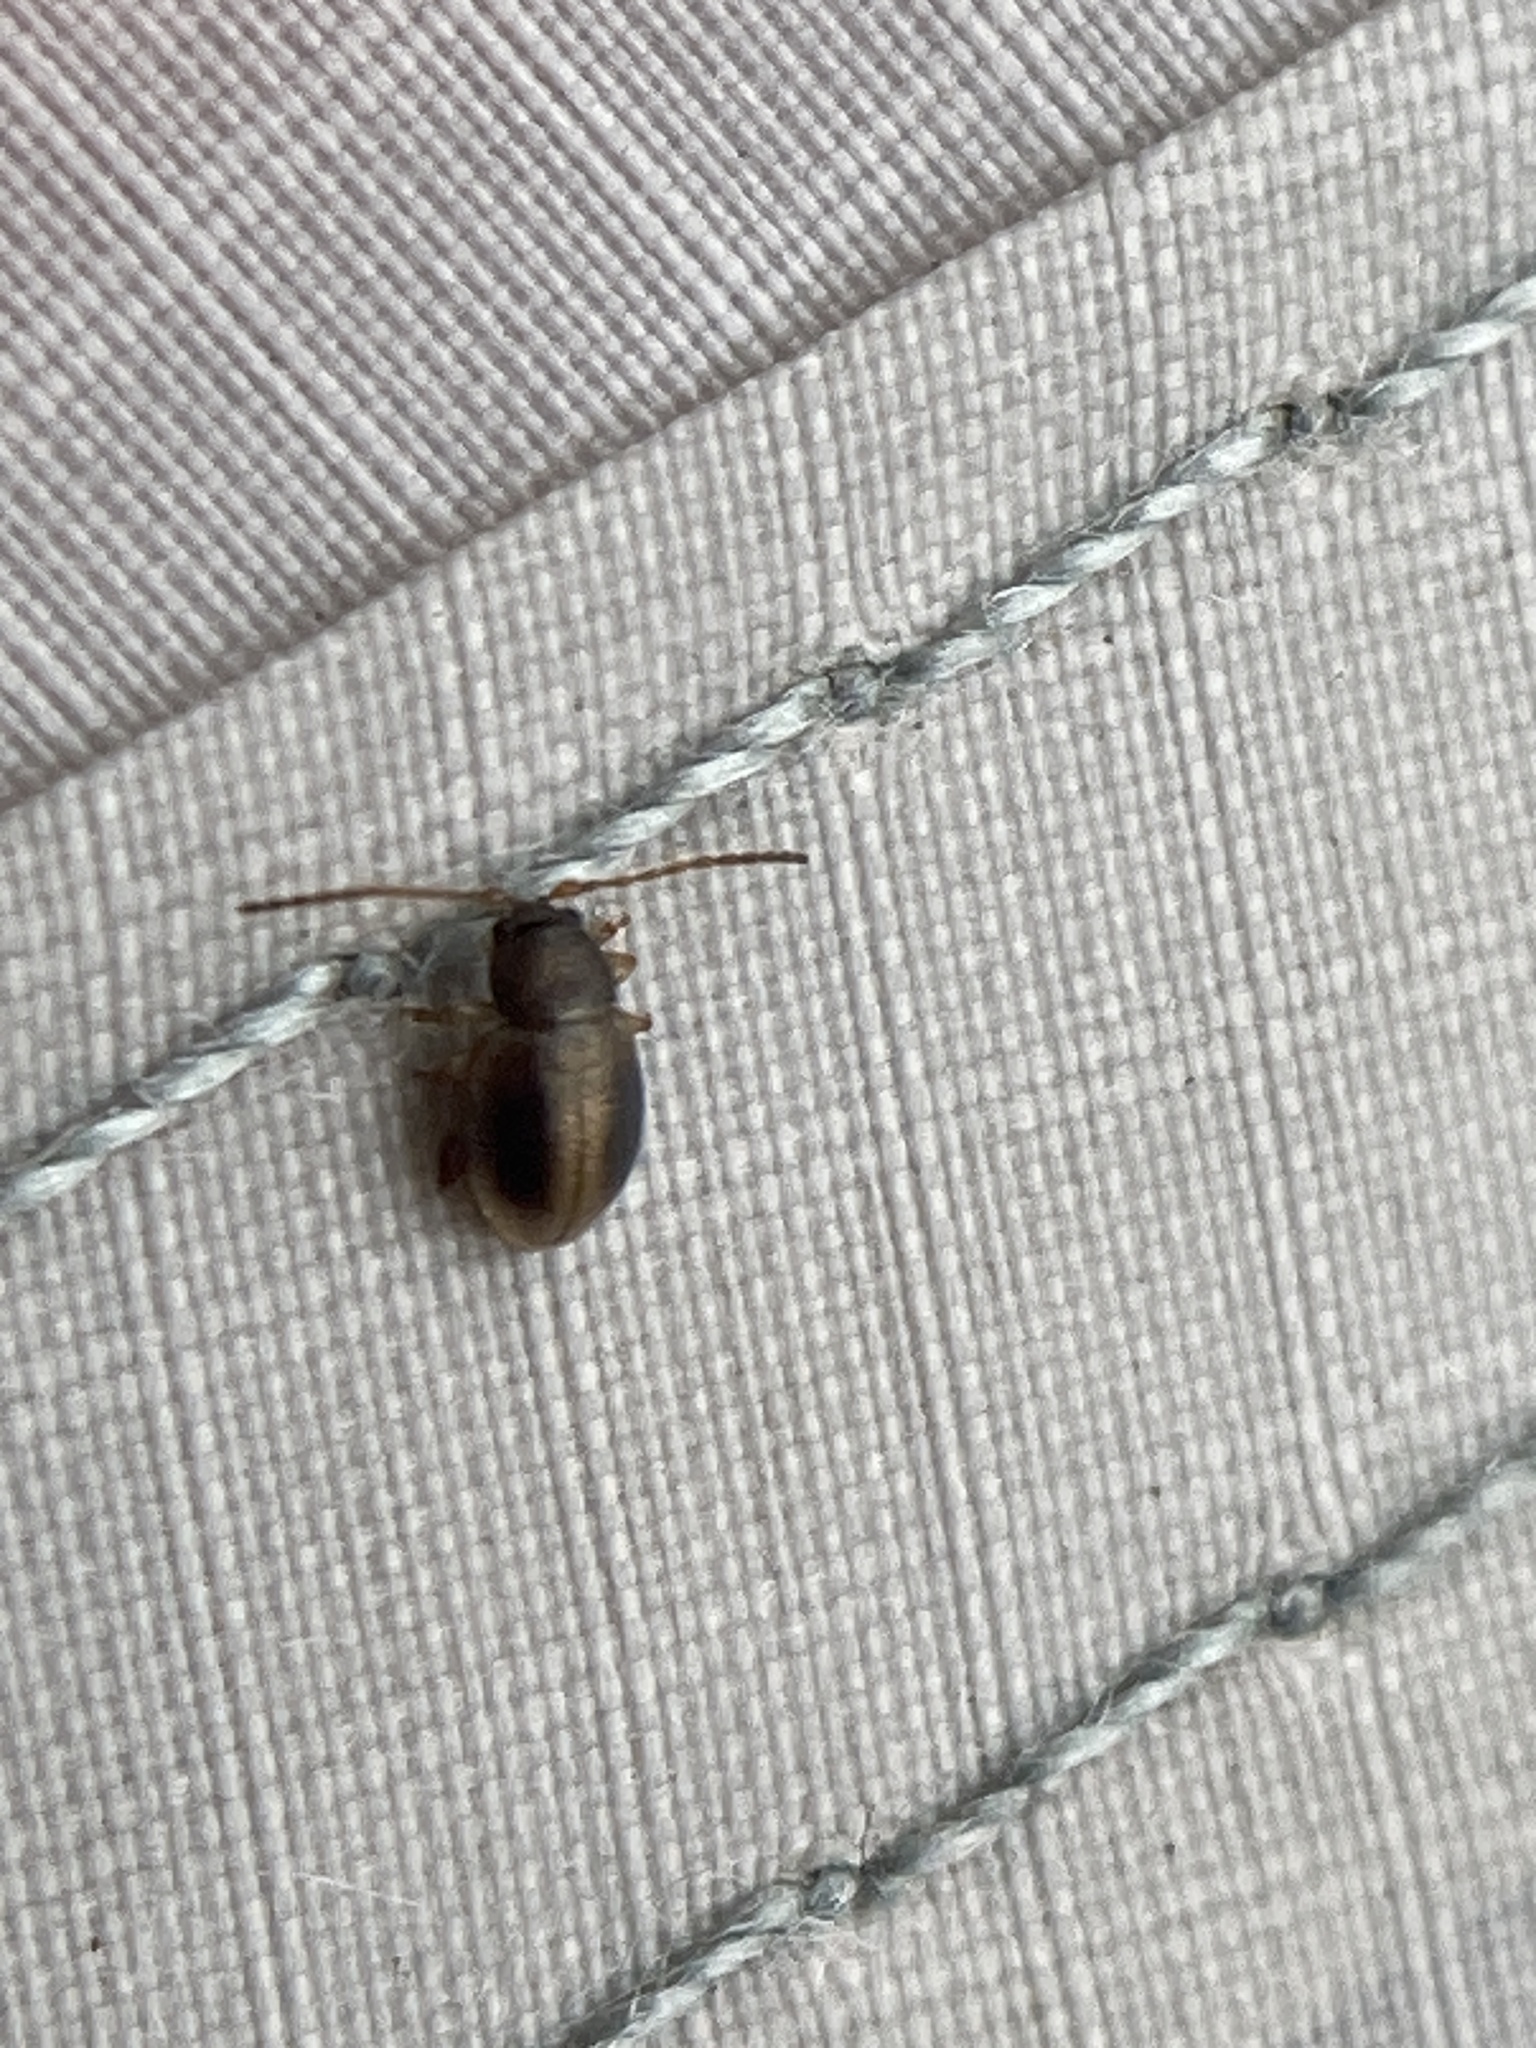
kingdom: Animalia
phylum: Arthropoda
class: Insecta
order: Coleoptera
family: Chrysomelidae
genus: Trachytetra
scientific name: Trachytetra
